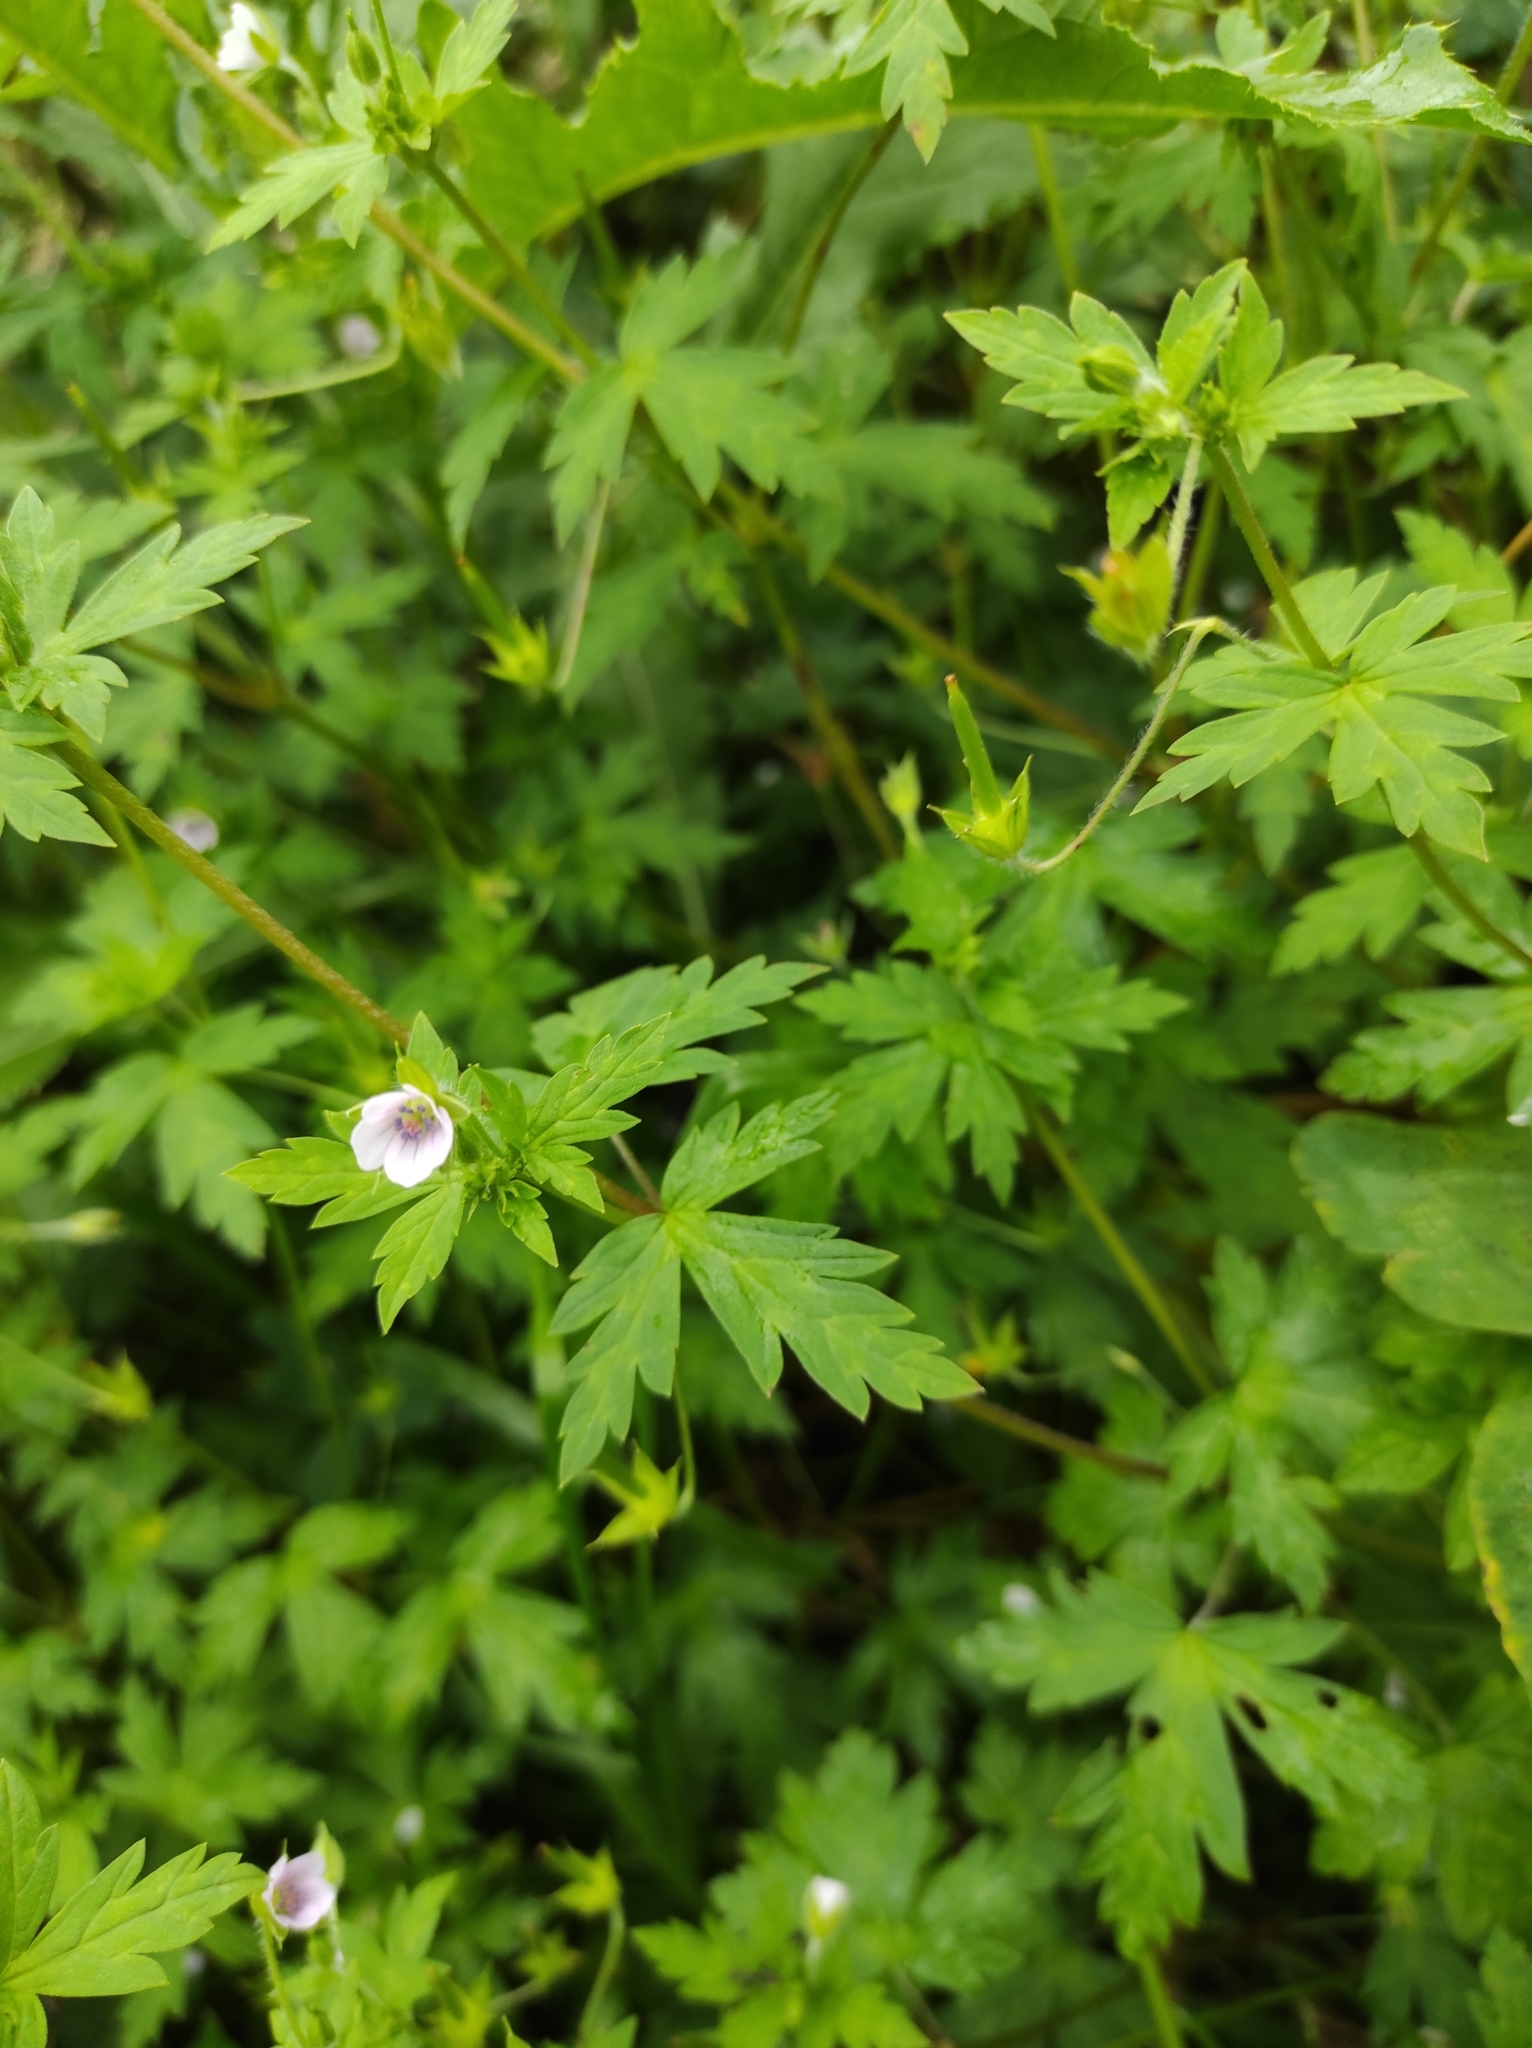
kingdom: Plantae
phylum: Tracheophyta
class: Magnoliopsida
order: Geraniales
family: Geraniaceae
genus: Geranium
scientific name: Geranium sibiricum
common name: Siberian crane's-bill
